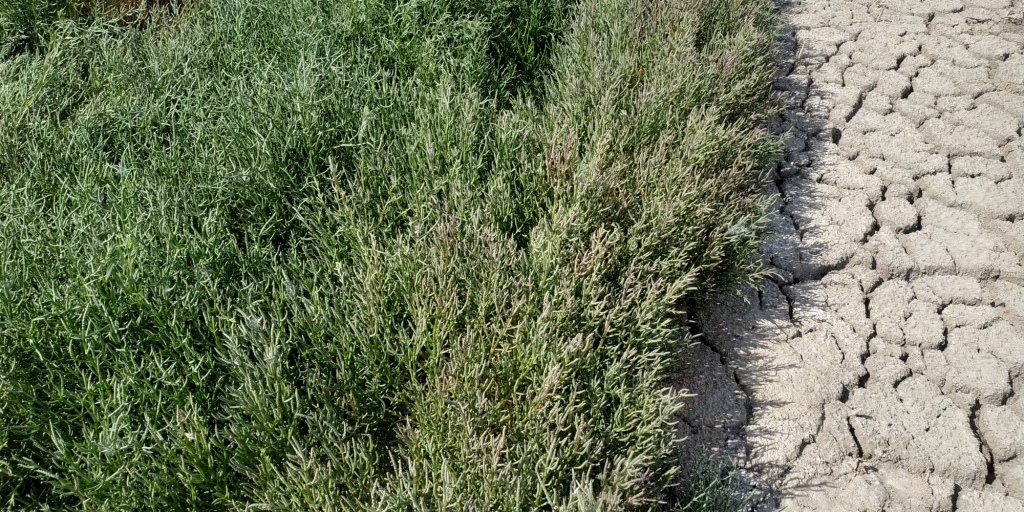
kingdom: Plantae
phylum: Tracheophyta
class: Magnoliopsida
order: Caryophyllales
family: Amaranthaceae
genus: Salicornia
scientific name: Salicornia perennans
